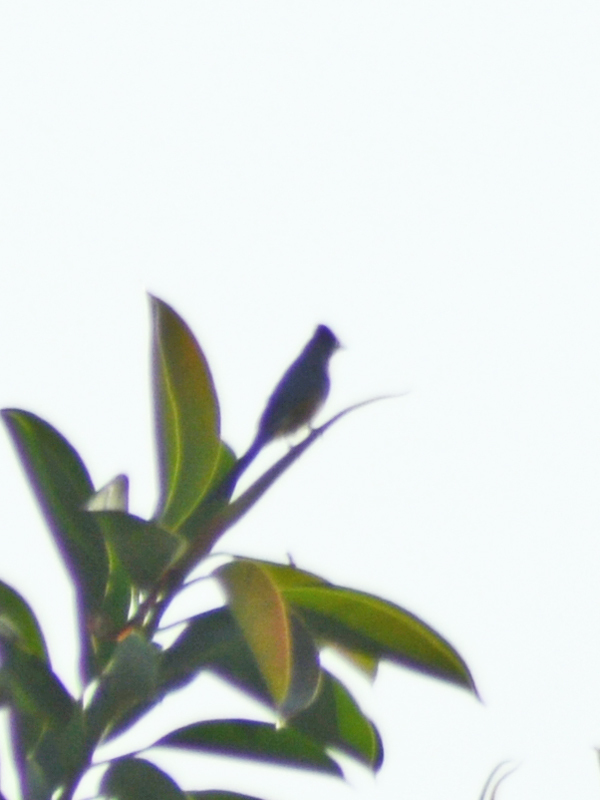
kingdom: Animalia
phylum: Chordata
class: Aves
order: Passeriformes
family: Ptilogonatidae
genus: Ptilogonys
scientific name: Ptilogonys cinereus
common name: Gray silky-flycatcher
